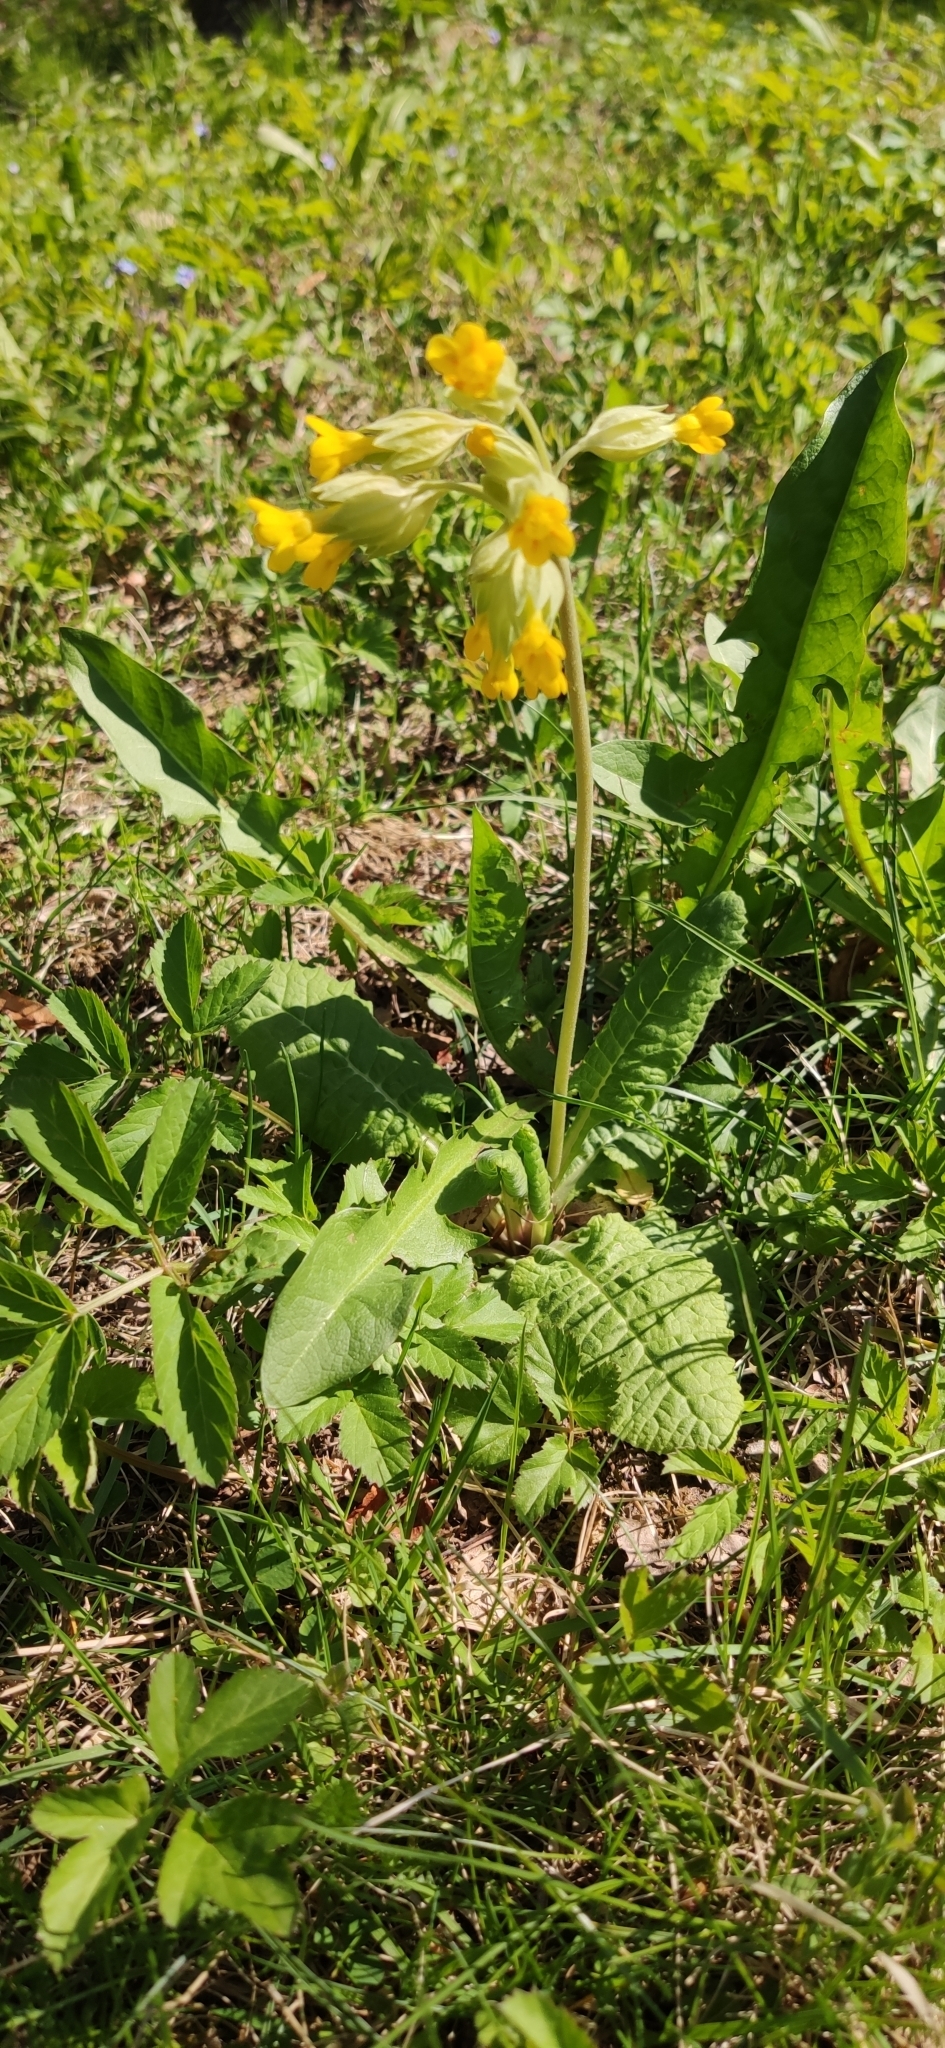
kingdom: Plantae
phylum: Tracheophyta
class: Magnoliopsida
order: Ericales
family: Primulaceae
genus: Primula
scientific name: Primula veris
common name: Cowslip
